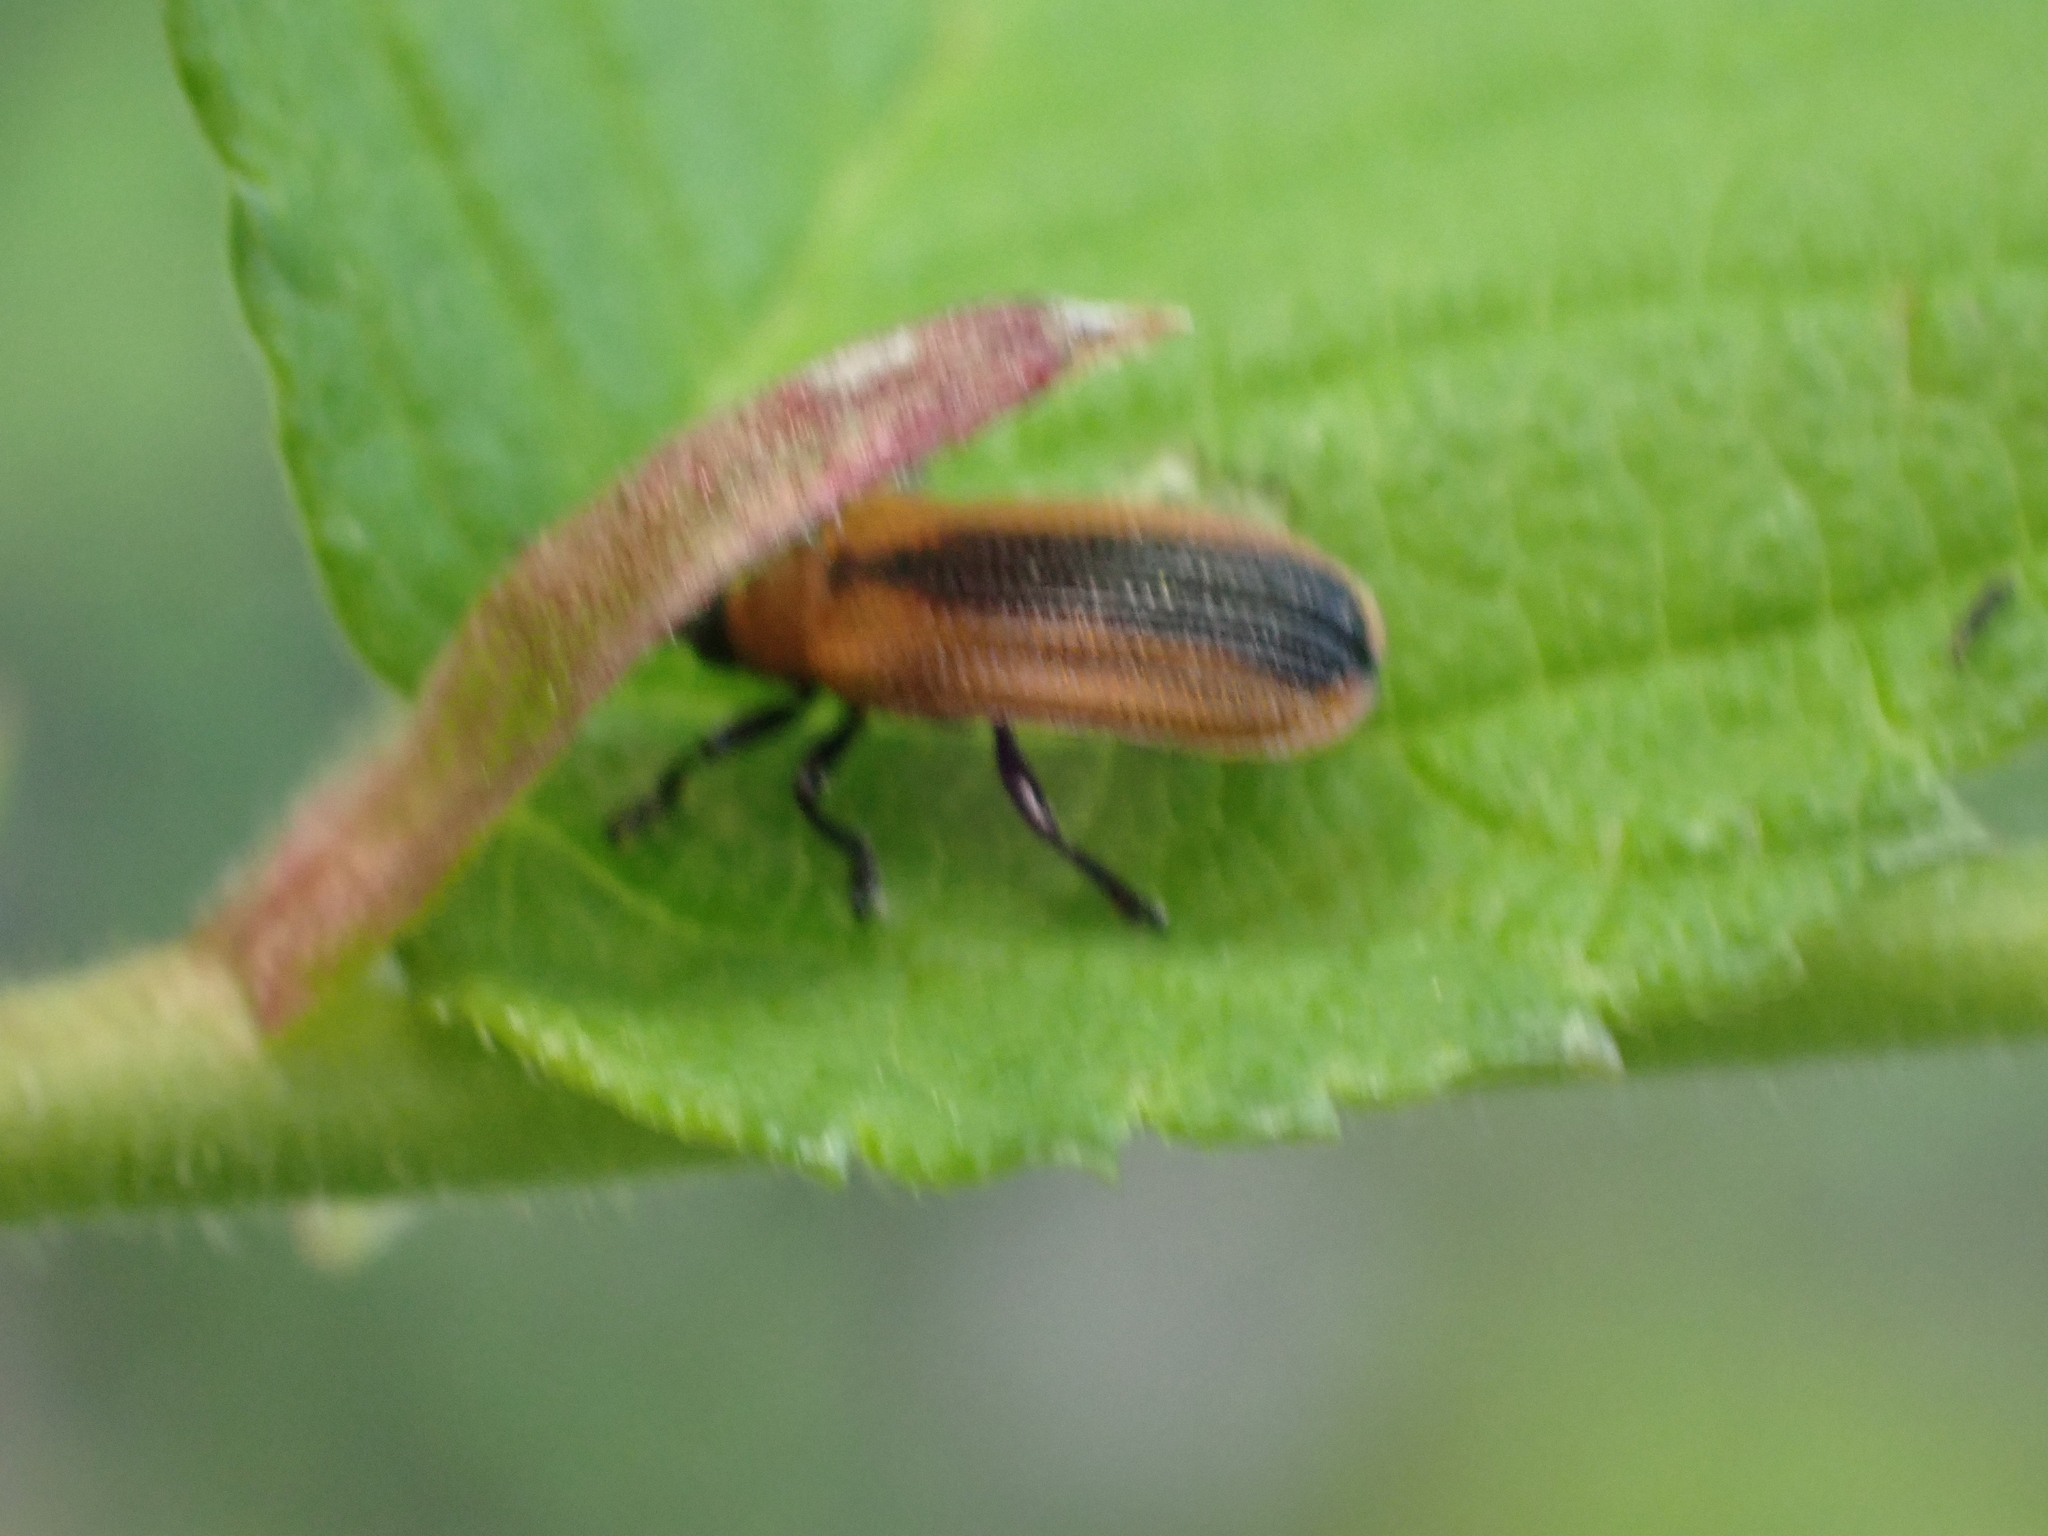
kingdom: Animalia
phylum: Arthropoda
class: Insecta
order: Coleoptera
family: Chrysomelidae
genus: Odontota
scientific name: Odontota dorsalis
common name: Locust leaf-miner beetle
